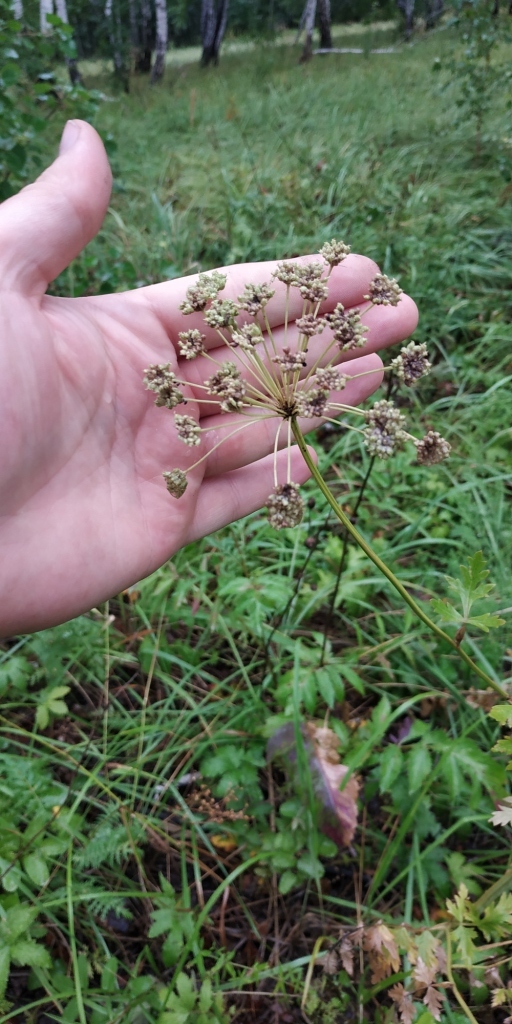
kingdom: Plantae
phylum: Tracheophyta
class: Magnoliopsida
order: Apiales
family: Apiaceae
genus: Seseli
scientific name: Seseli libanotis
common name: Mooncarrot
